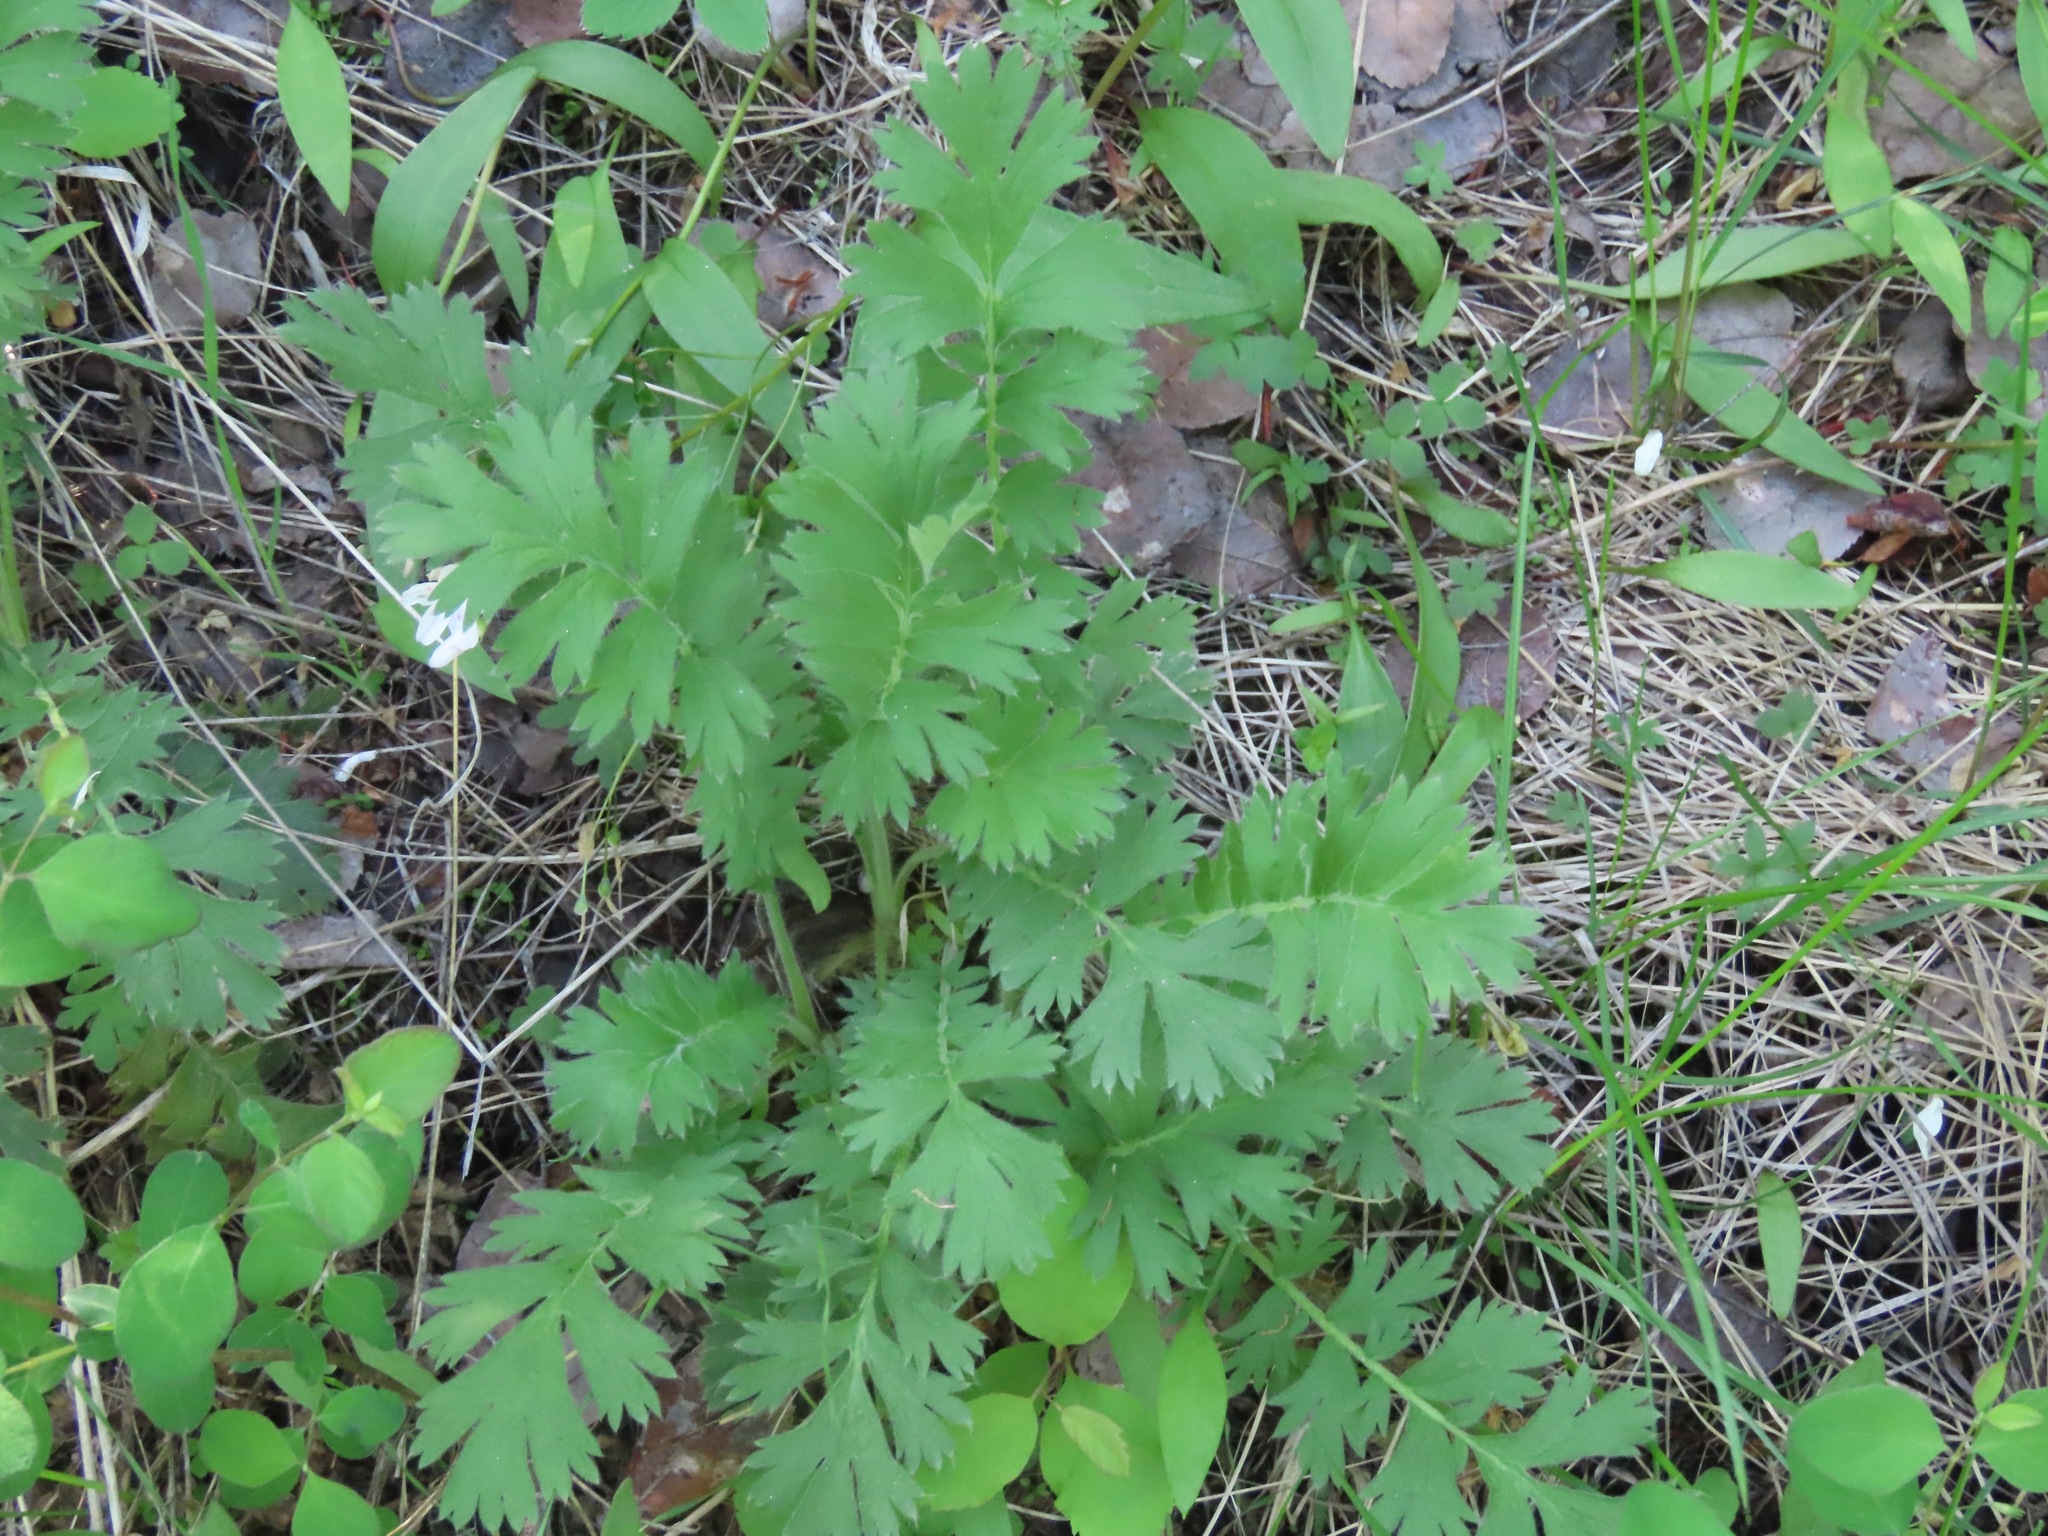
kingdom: Plantae
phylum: Tracheophyta
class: Magnoliopsida
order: Rosales
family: Rosaceae
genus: Geum
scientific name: Geum triflorum
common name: Old man's whiskers
